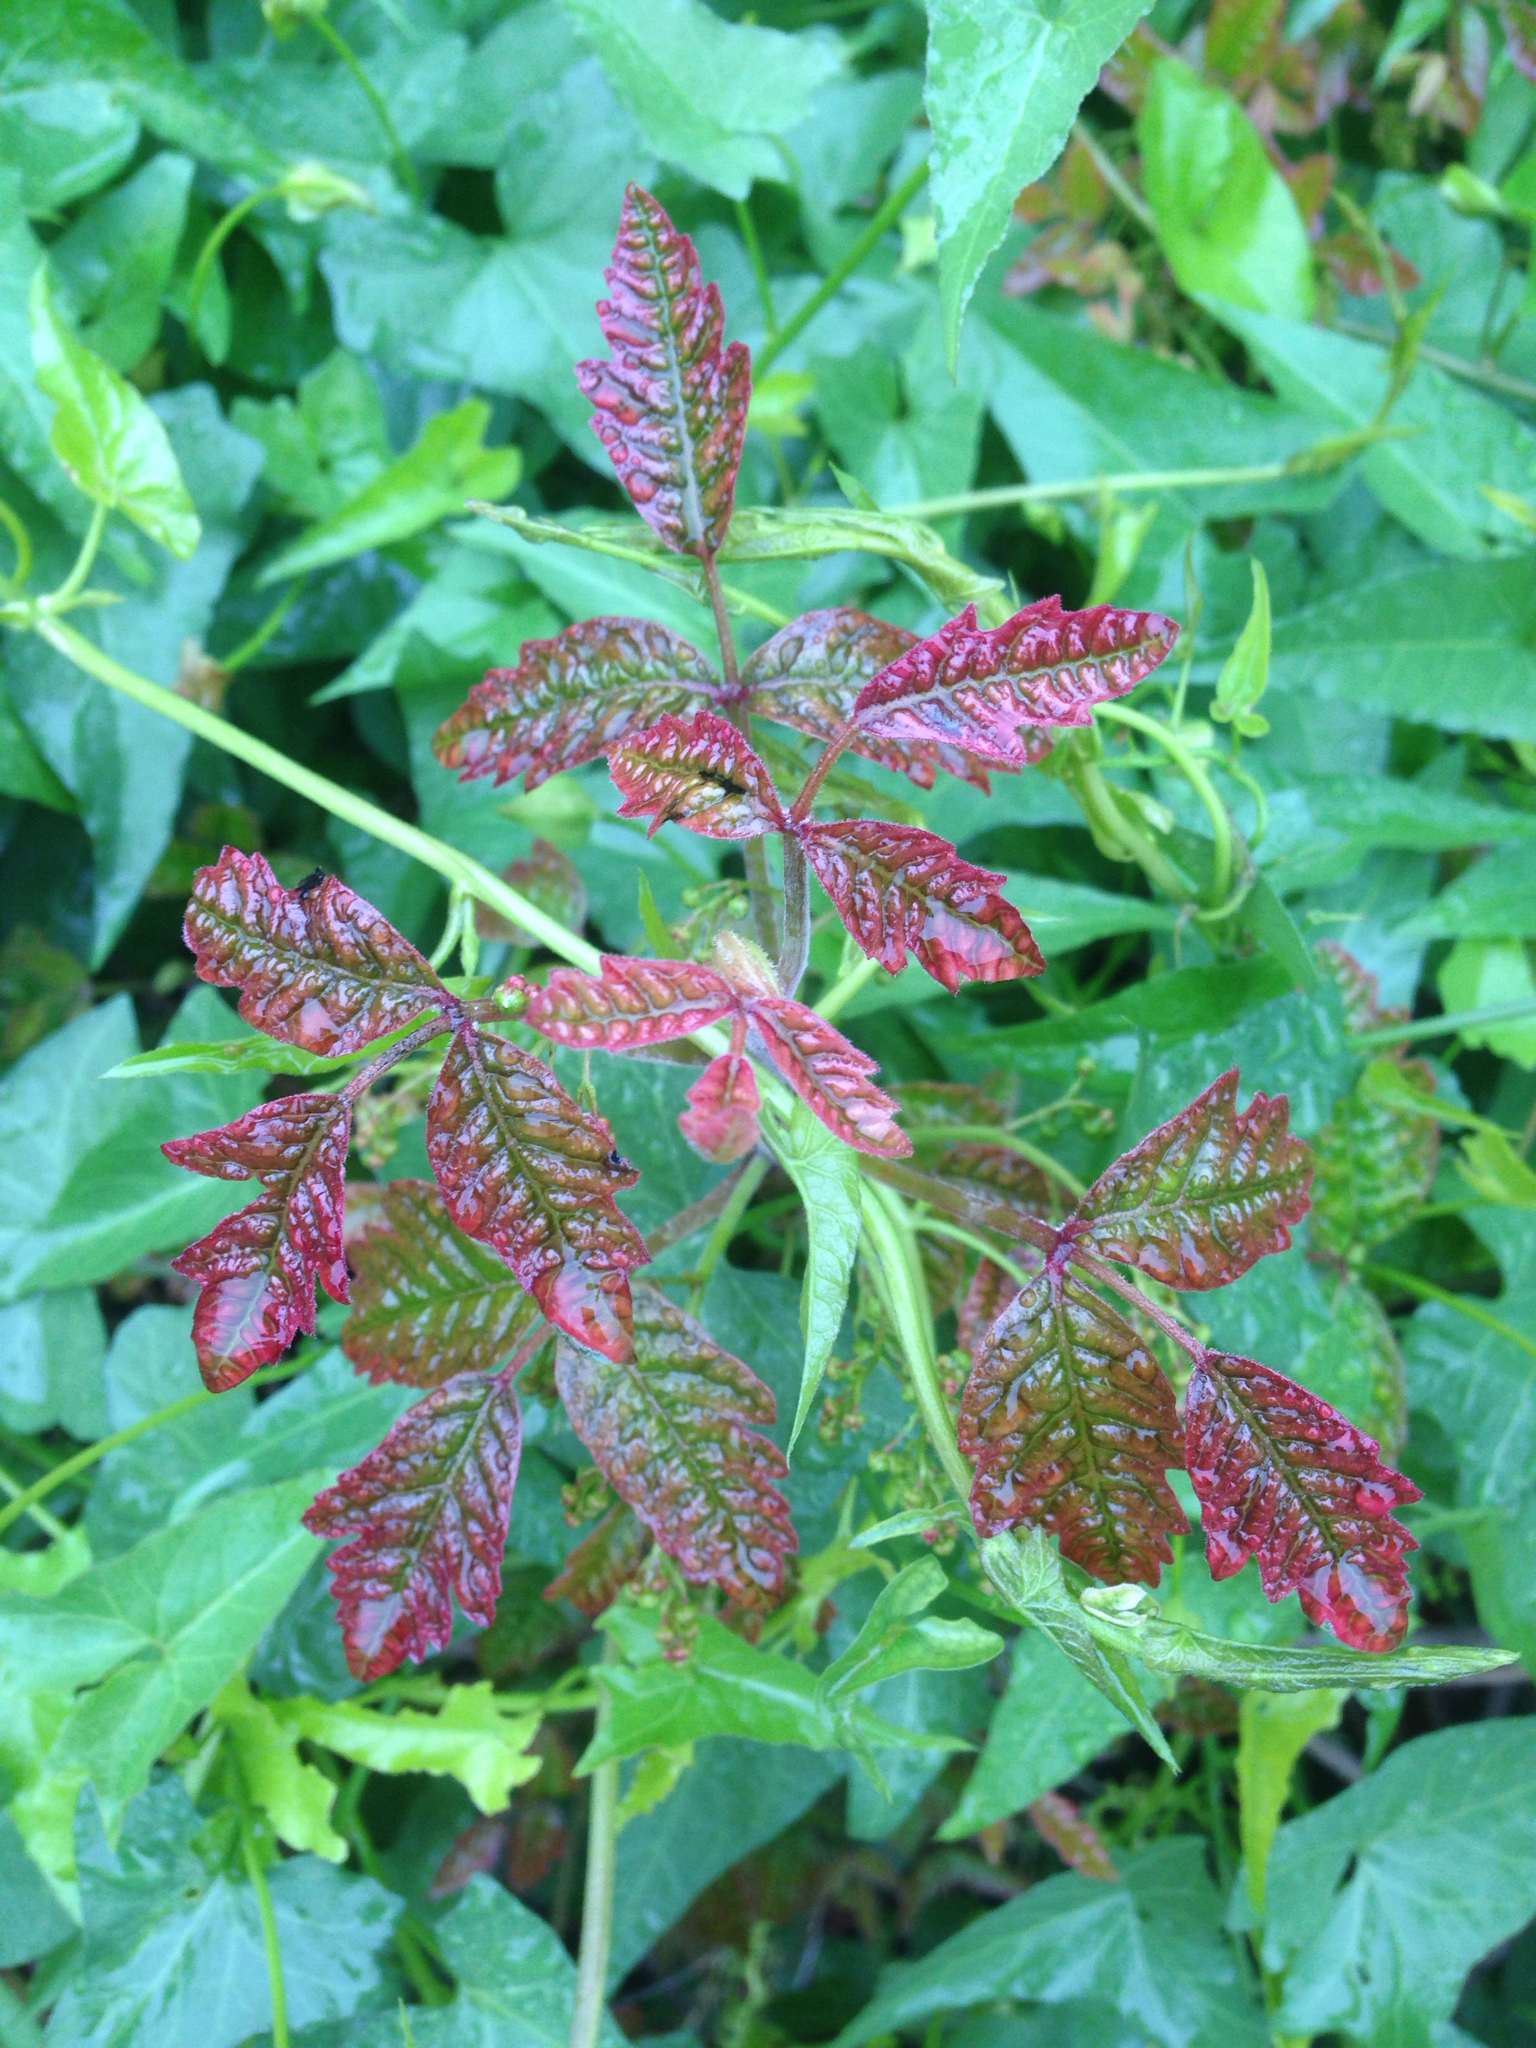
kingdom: Plantae
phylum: Tracheophyta
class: Magnoliopsida
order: Sapindales
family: Anacardiaceae
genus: Toxicodendron
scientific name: Toxicodendron diversilobum
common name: Pacific poison-oak
